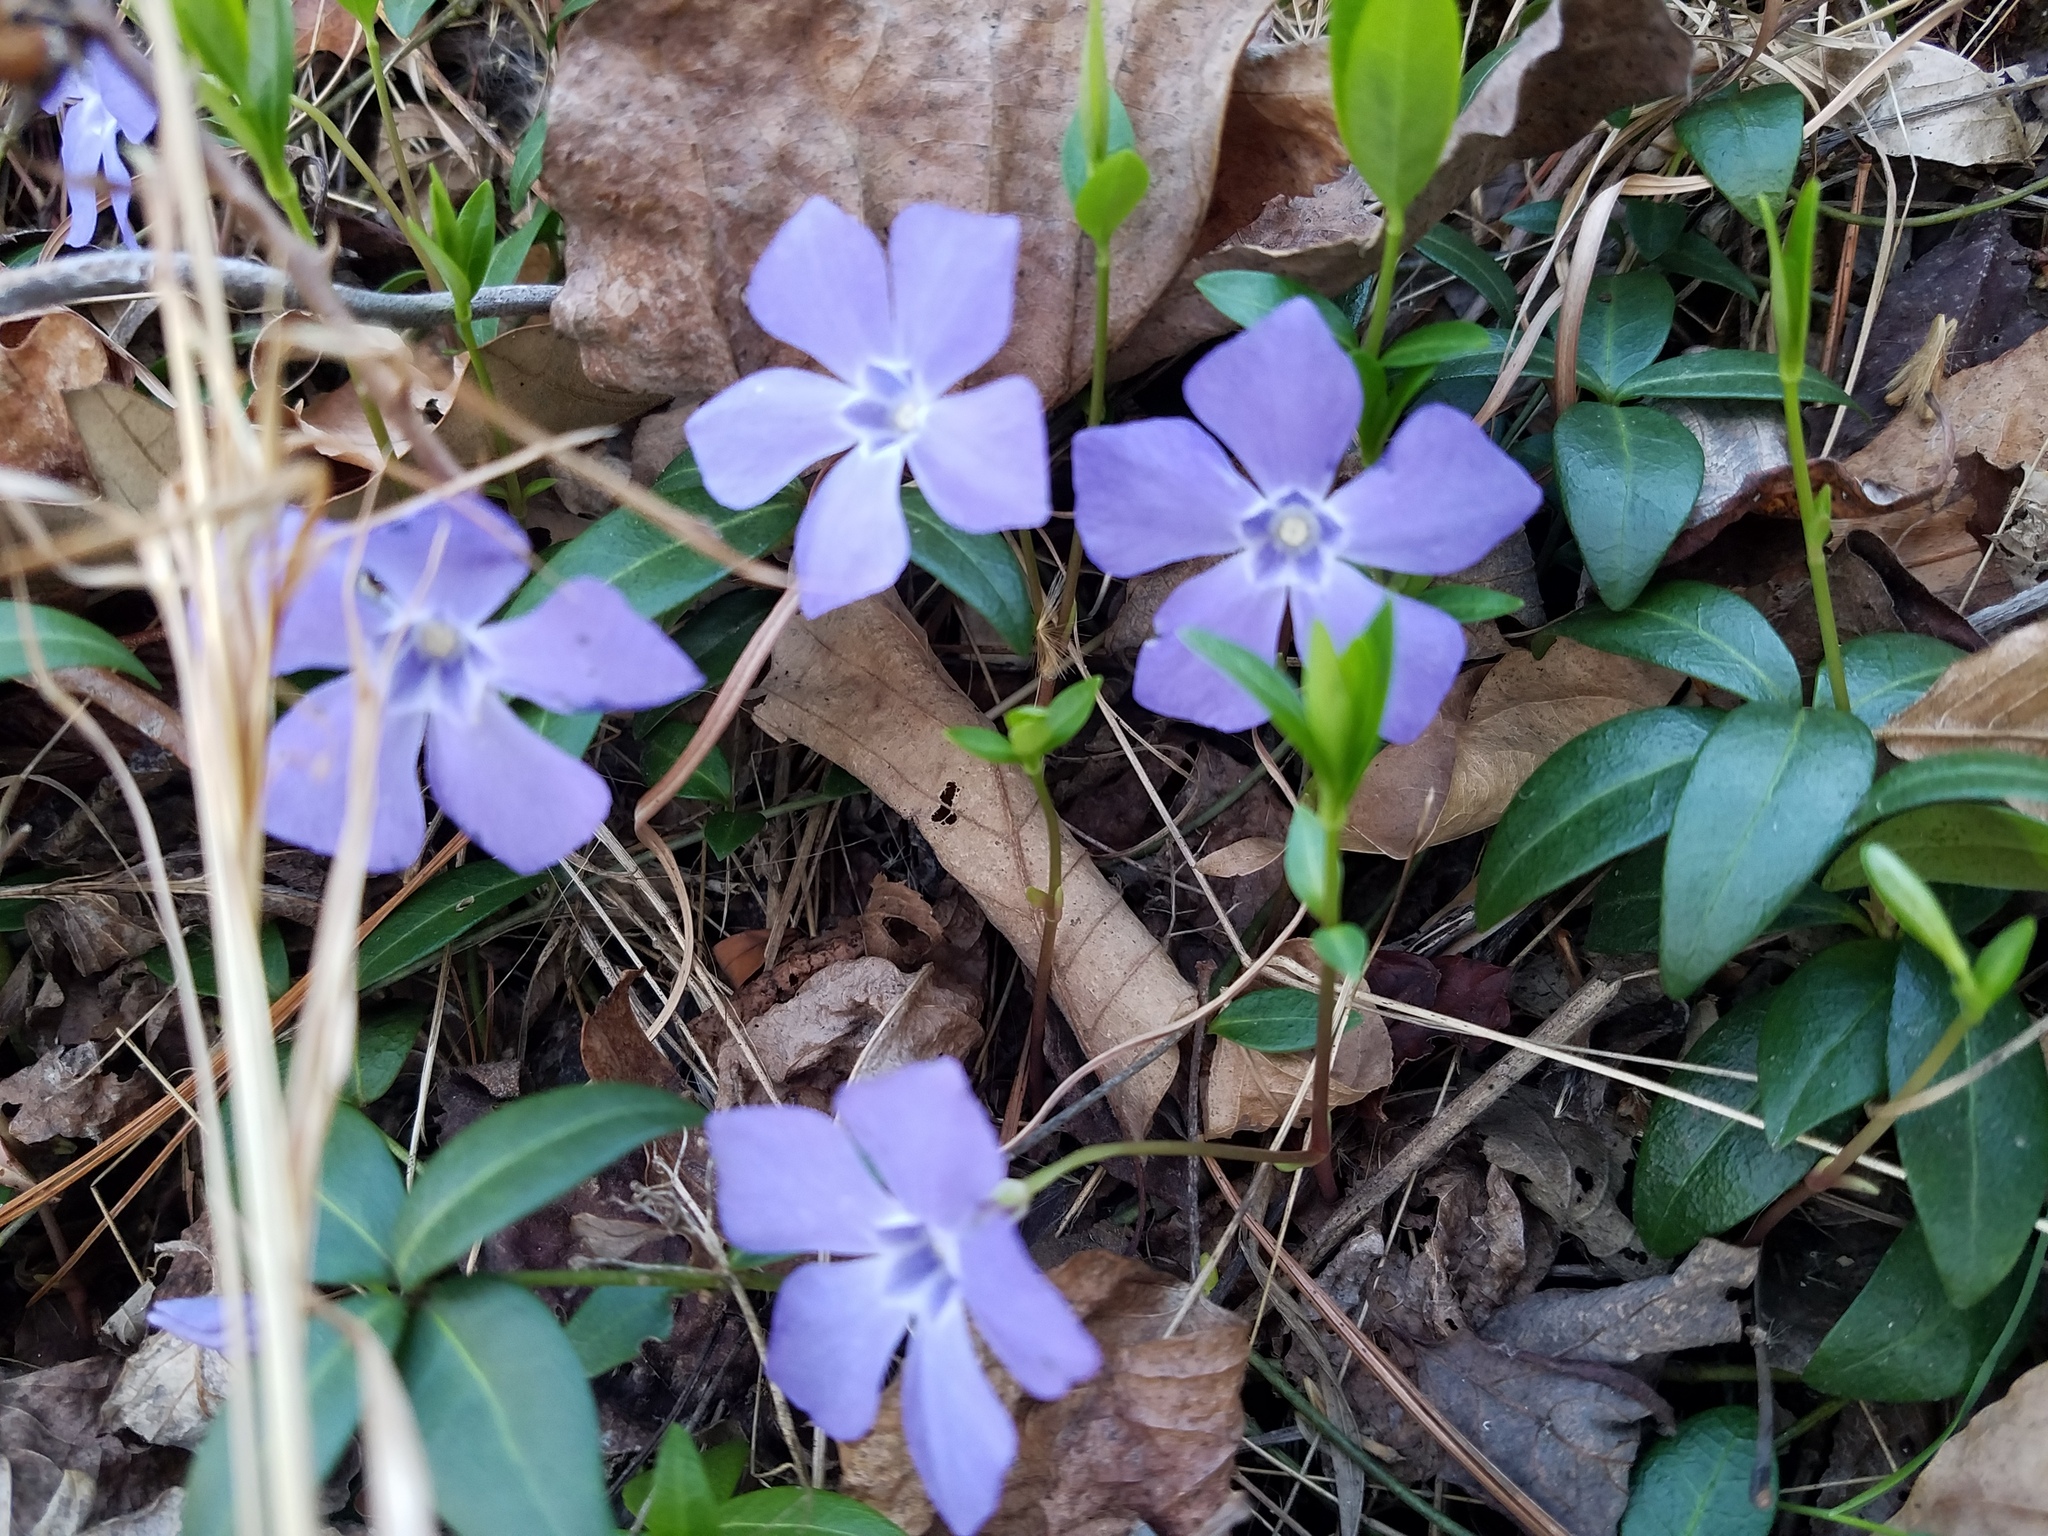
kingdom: Plantae
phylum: Tracheophyta
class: Magnoliopsida
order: Gentianales
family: Apocynaceae
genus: Vinca
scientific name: Vinca minor
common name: Lesser periwinkle
